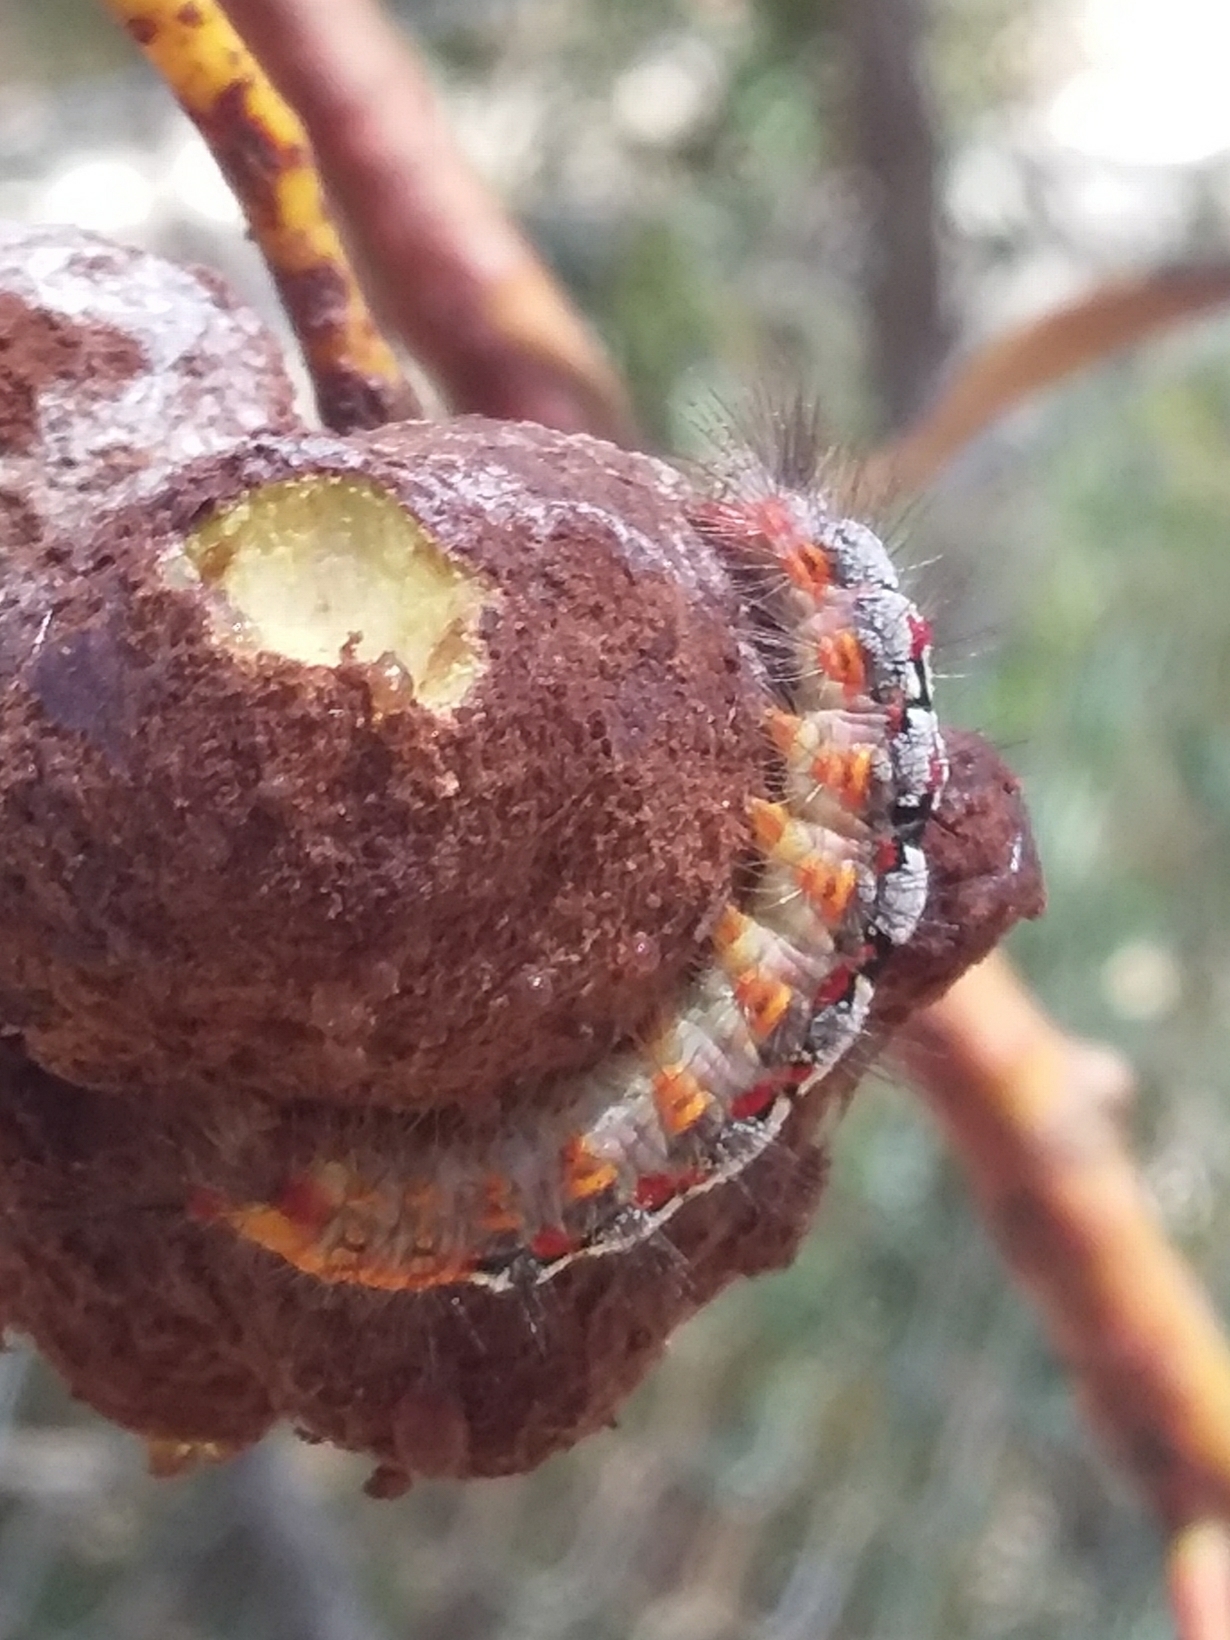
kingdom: Animalia
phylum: Arthropoda
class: Insecta
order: Lepidoptera
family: Erebidae
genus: Acyphas
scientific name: Acyphas semiochrea
